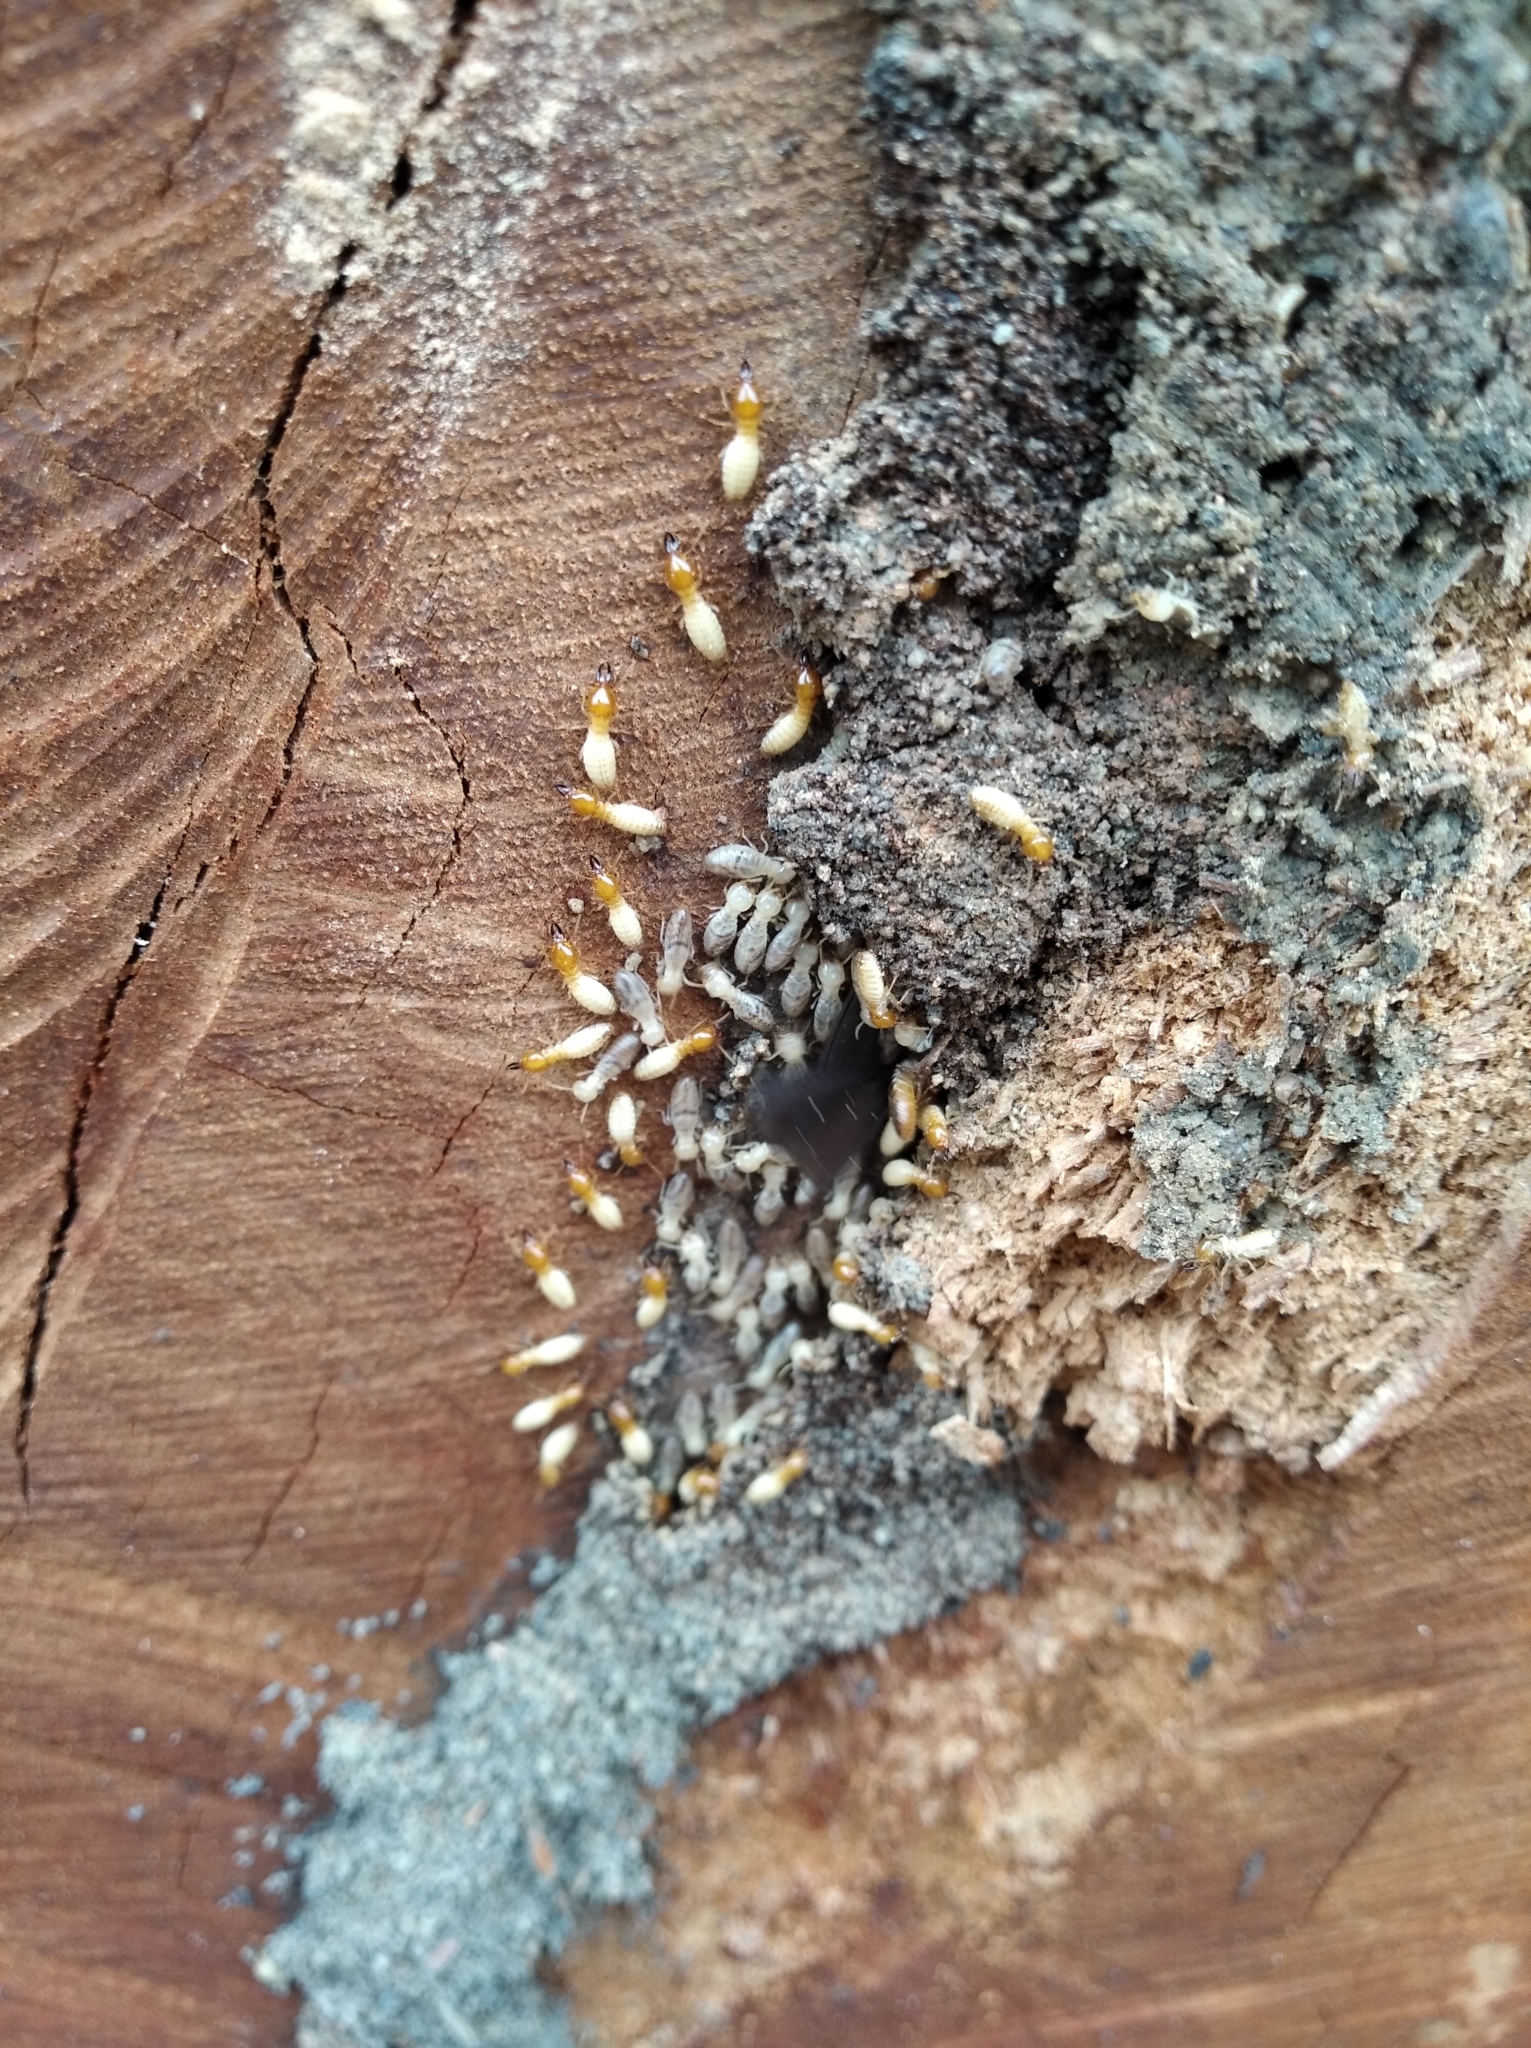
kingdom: Animalia
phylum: Arthropoda
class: Insecta
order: Blattodea
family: Rhinotermitidae
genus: Coptotermes
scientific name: Coptotermes testaceus
